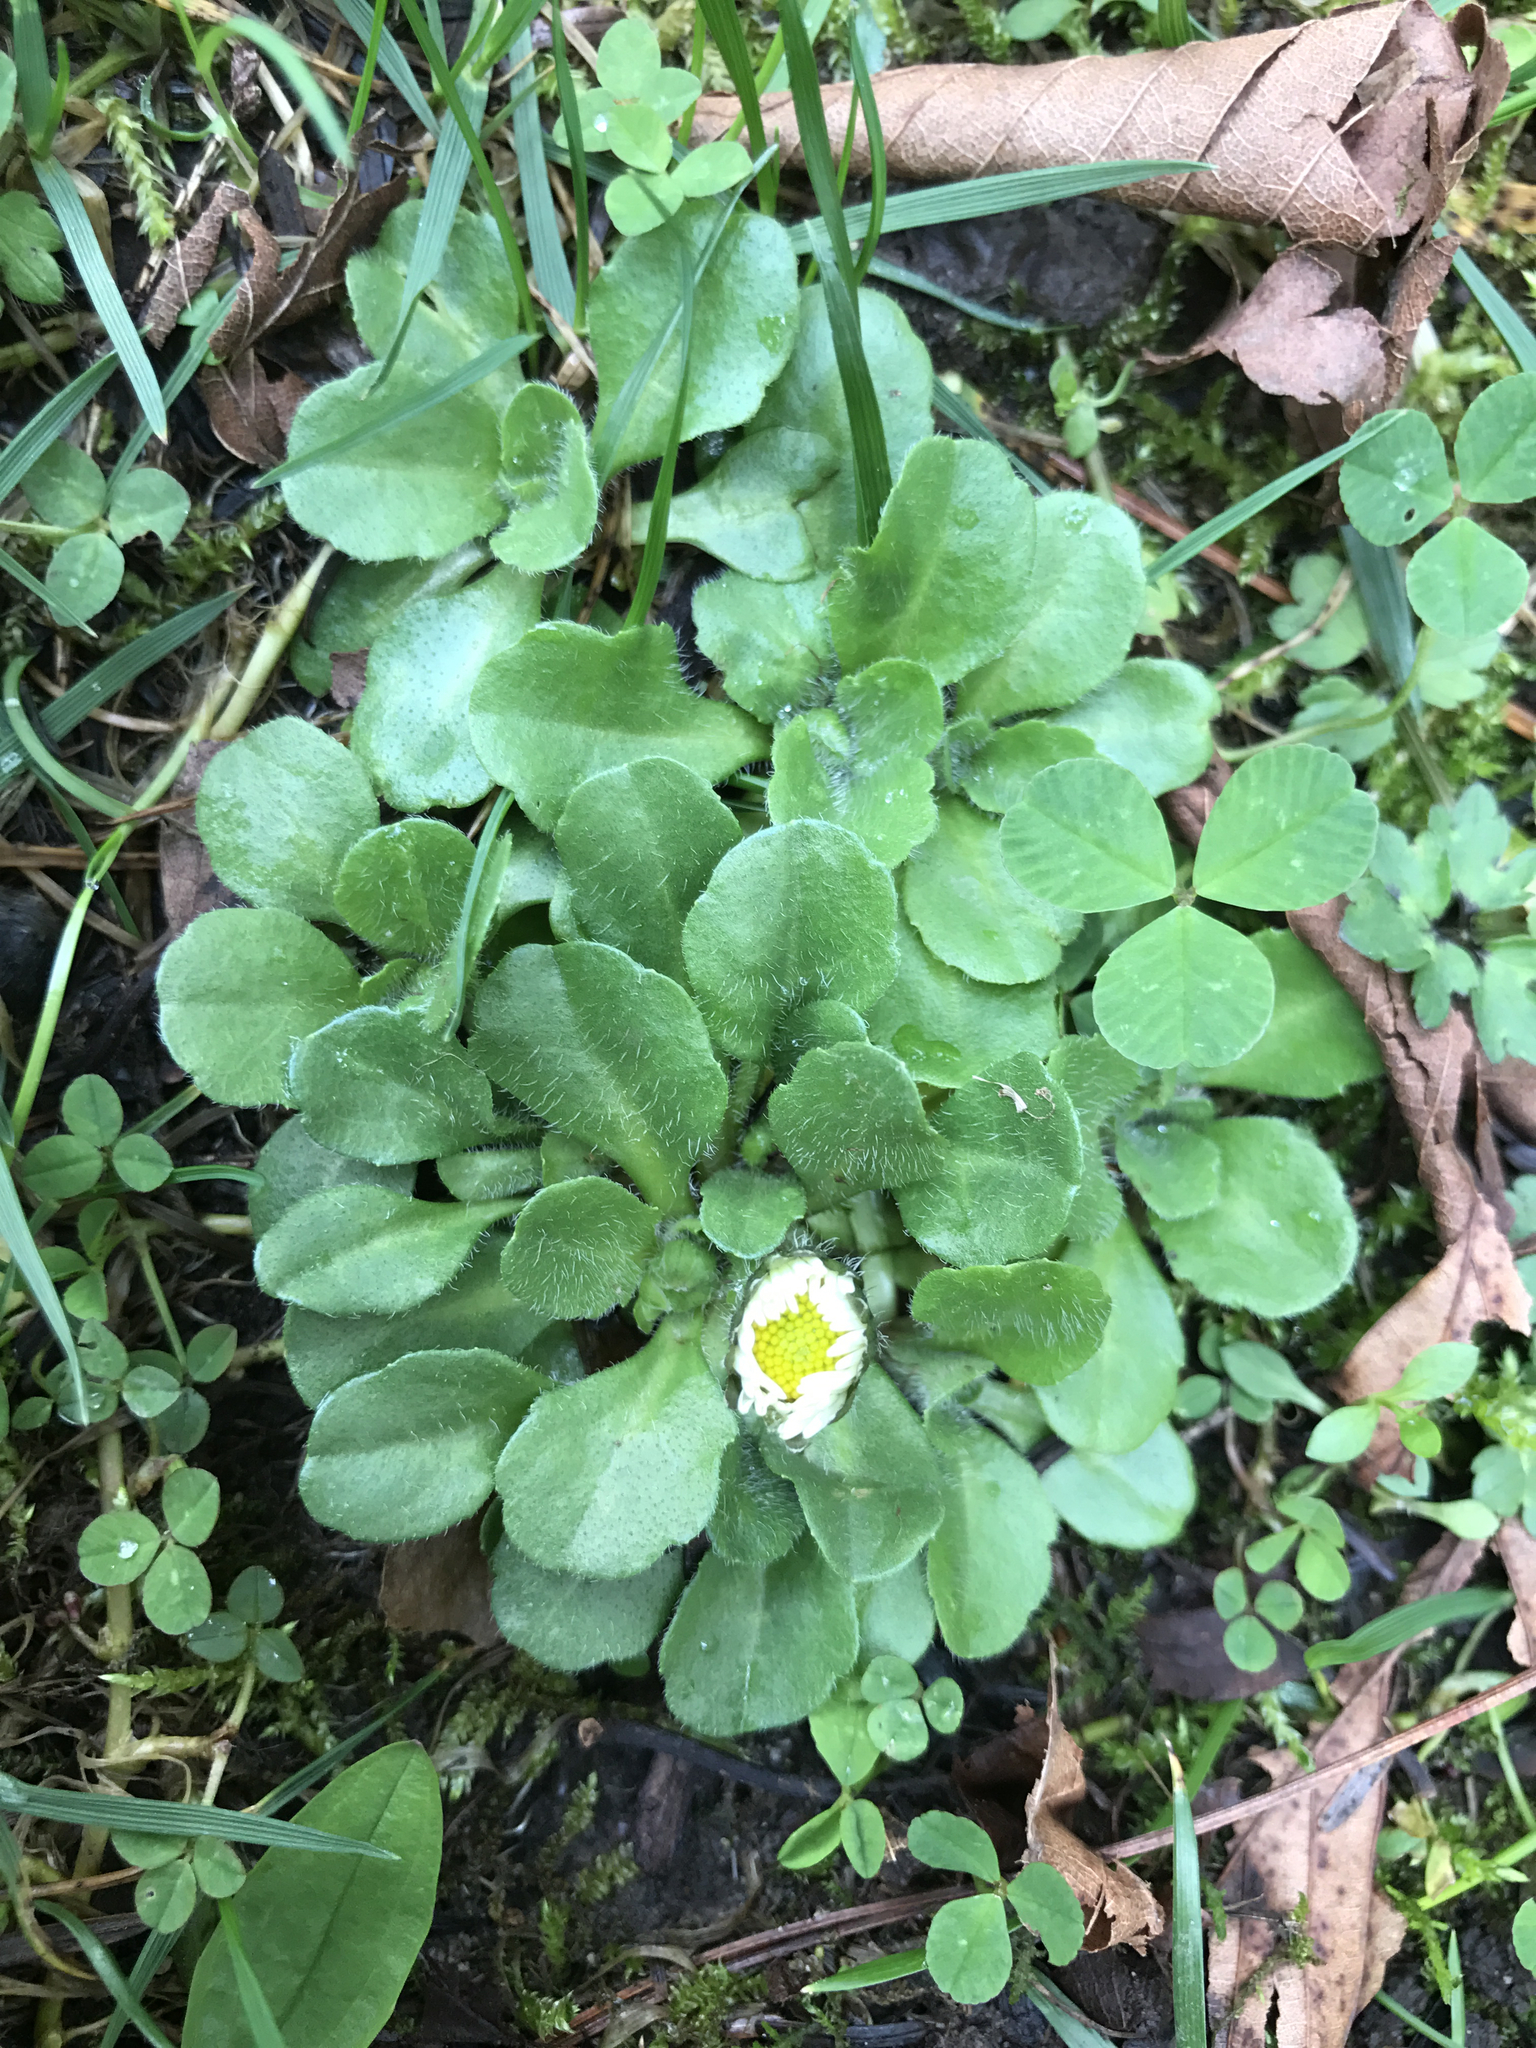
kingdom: Plantae
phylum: Tracheophyta
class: Magnoliopsida
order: Asterales
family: Asteraceae
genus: Bellis
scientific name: Bellis perennis
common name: Lawndaisy
